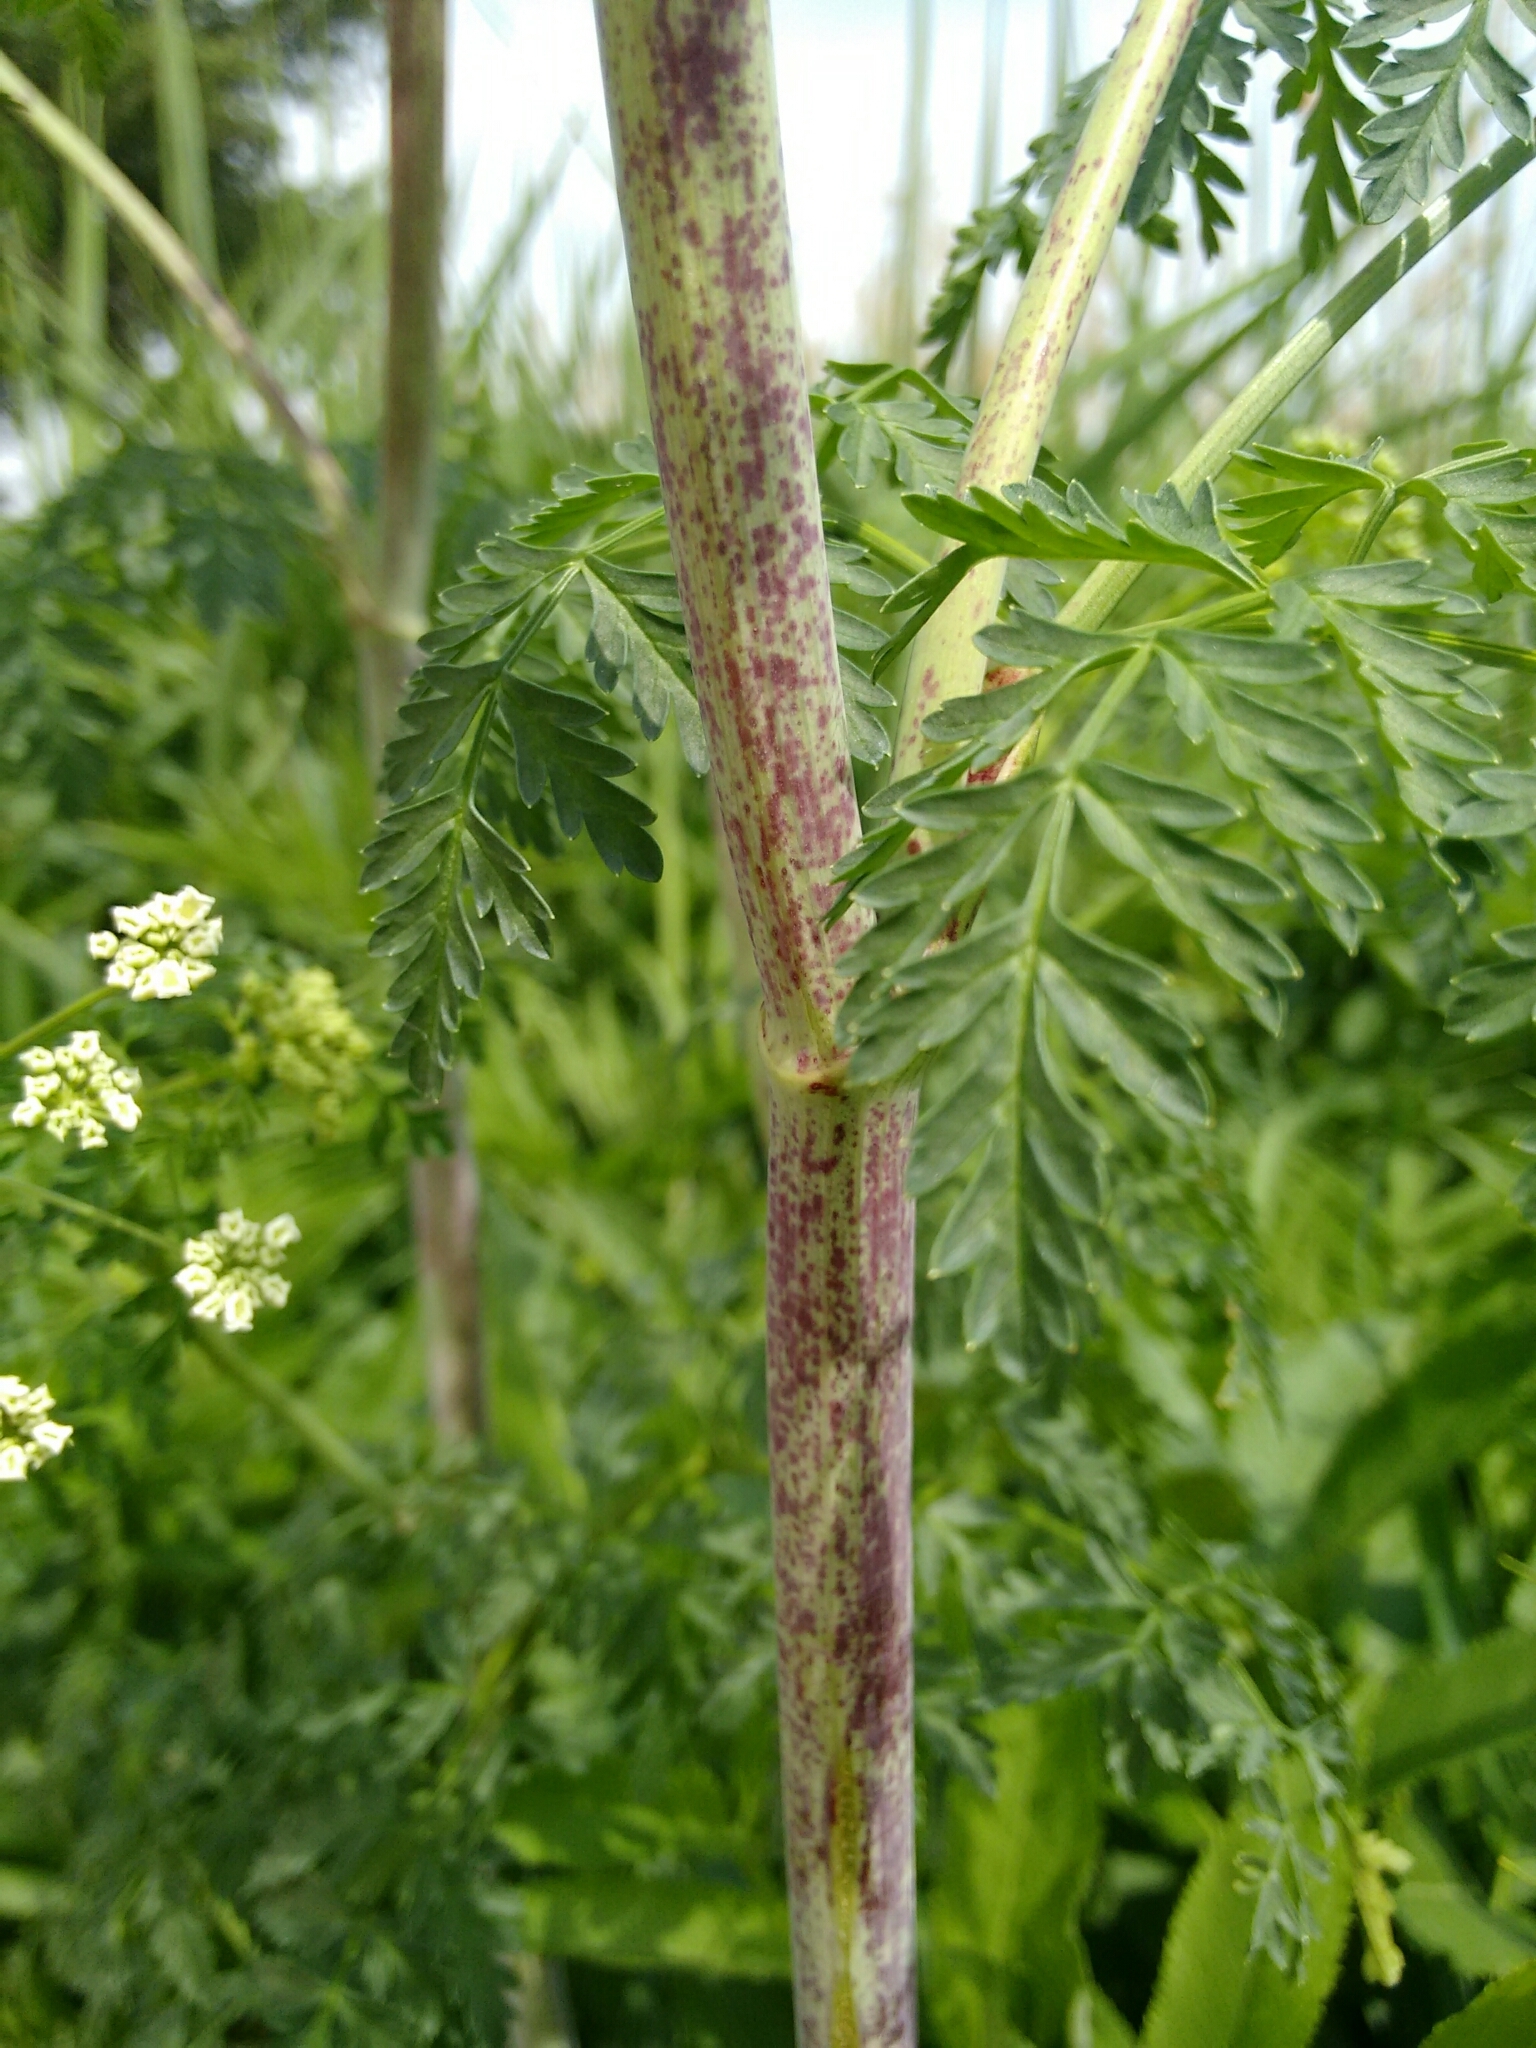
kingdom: Plantae
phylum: Tracheophyta
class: Magnoliopsida
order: Apiales
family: Apiaceae
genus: Conium
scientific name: Conium maculatum
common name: Hemlock
